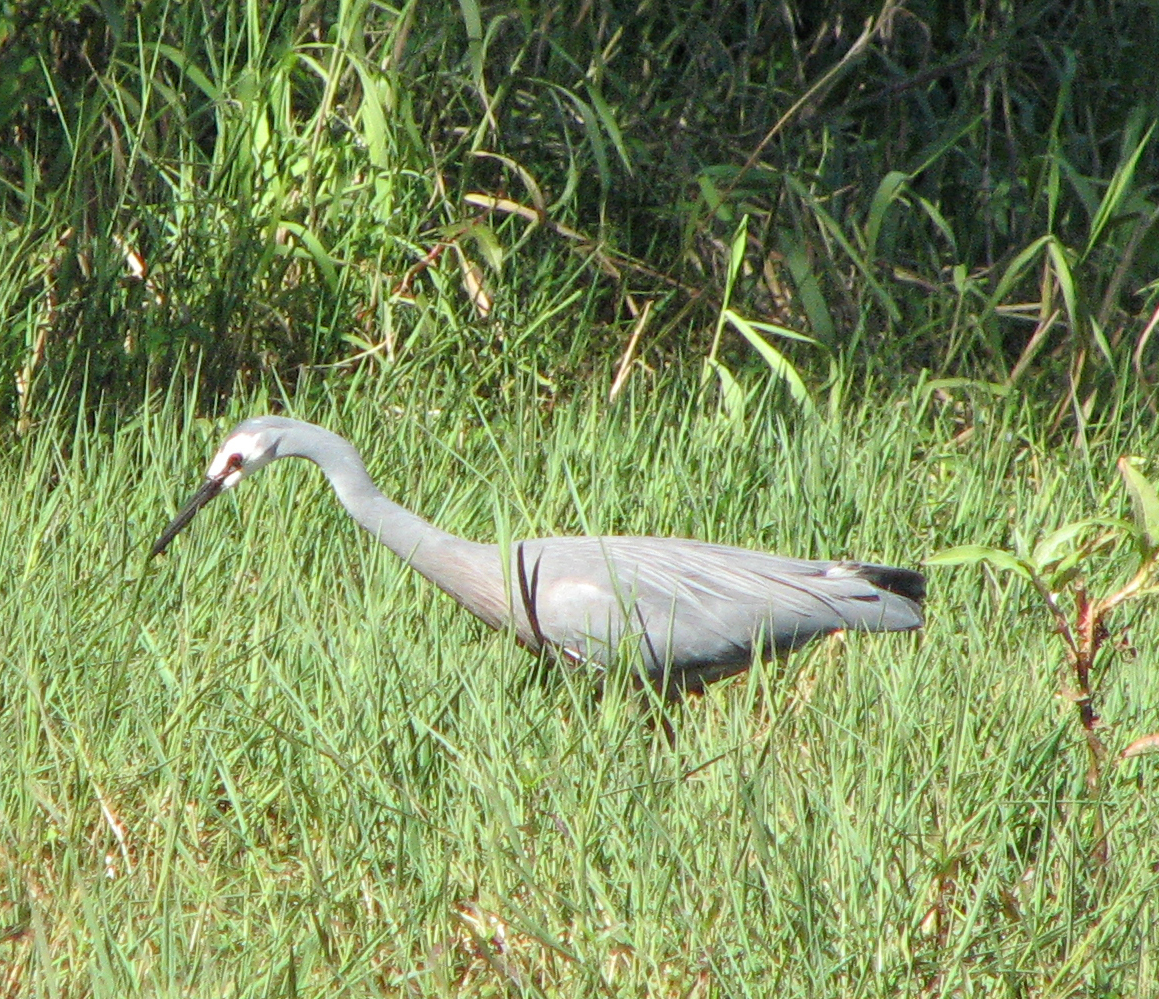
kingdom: Animalia
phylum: Chordata
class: Aves
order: Pelecaniformes
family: Ardeidae
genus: Egretta
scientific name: Egretta novaehollandiae
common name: White-faced heron
